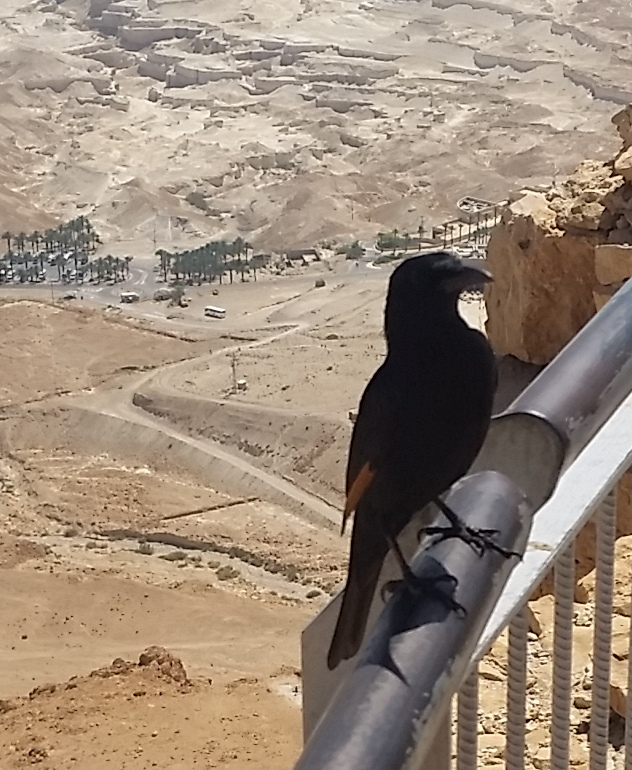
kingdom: Animalia
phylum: Chordata
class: Aves
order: Passeriformes
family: Sturnidae
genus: Onychognathus
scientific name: Onychognathus tristramii
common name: Tristram's starling
